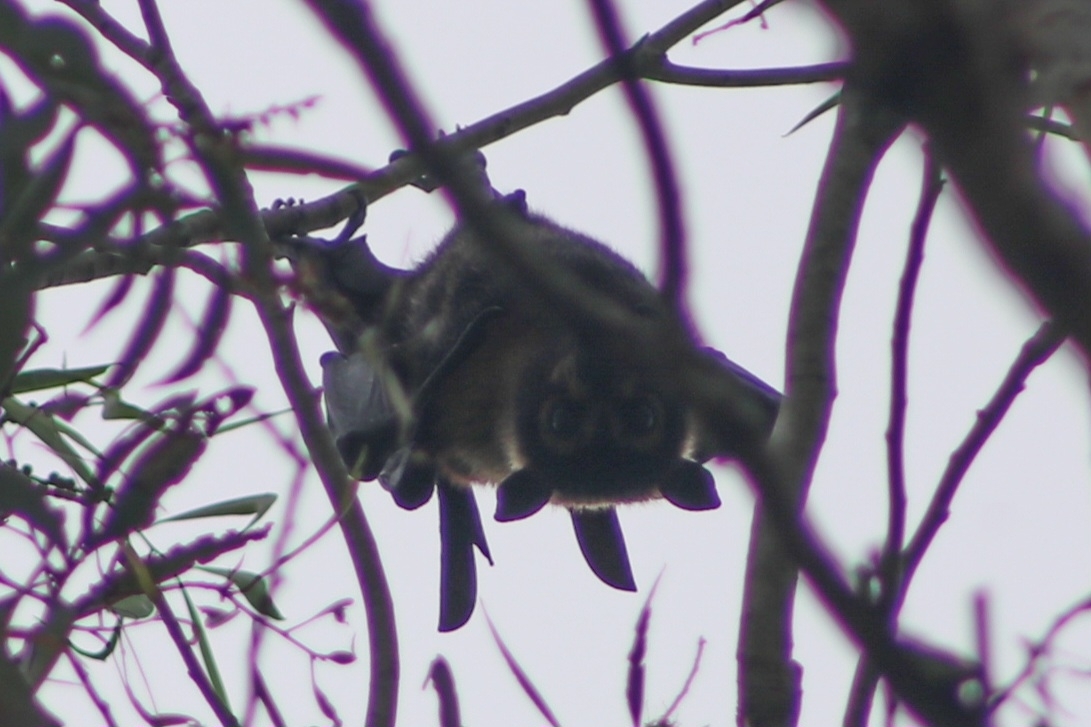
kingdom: Animalia
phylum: Chordata
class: Mammalia
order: Chiroptera
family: Pteropodidae
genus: Pteropus
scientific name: Pteropus conspicillatus
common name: Spectacled flying fox
